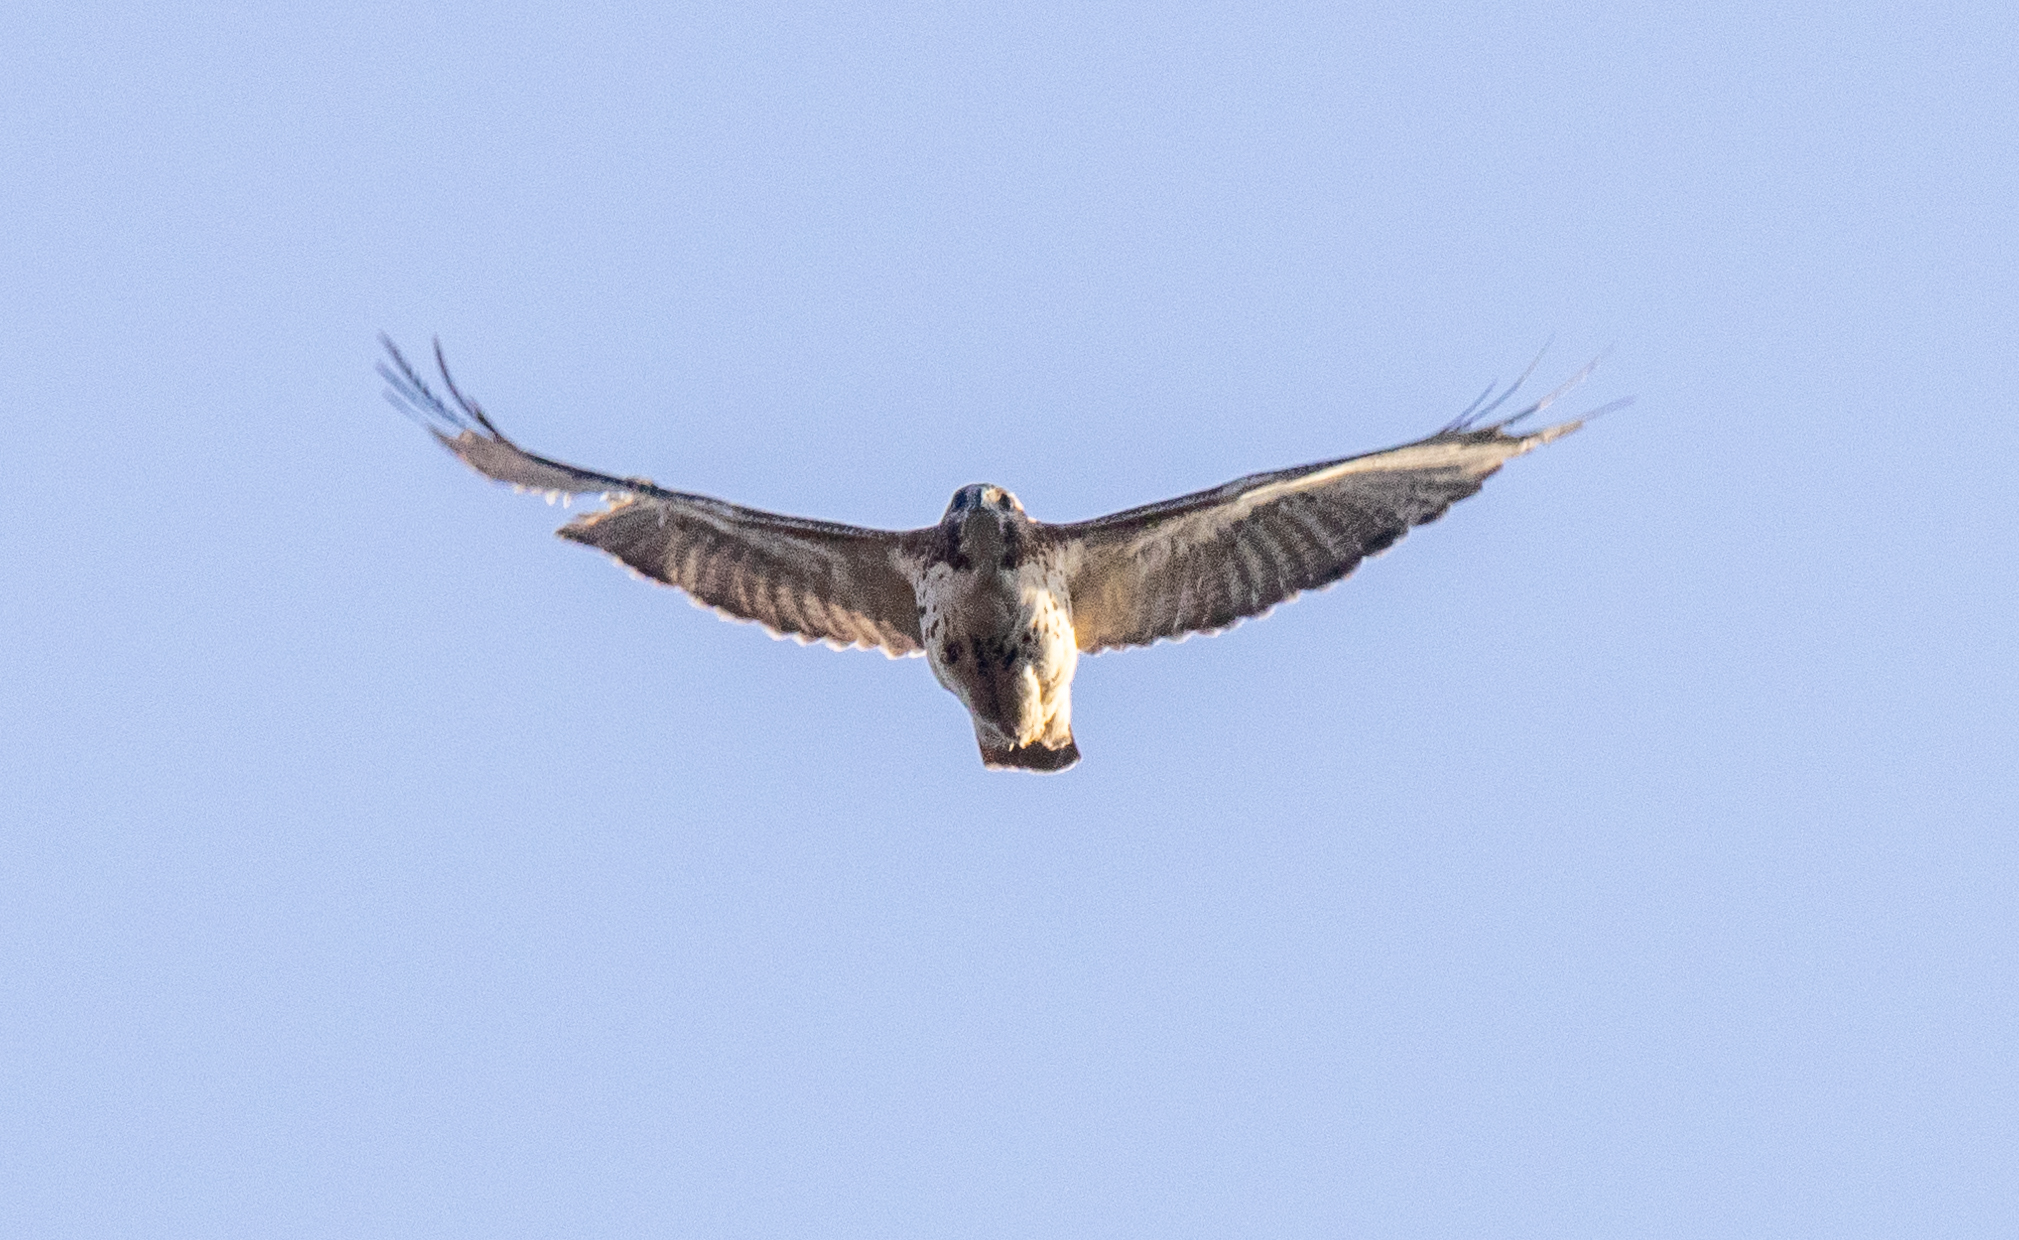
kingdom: Animalia
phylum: Chordata
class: Aves
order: Accipitriformes
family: Accipitridae
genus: Buteo
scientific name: Buteo jamaicensis
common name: Red-tailed hawk
